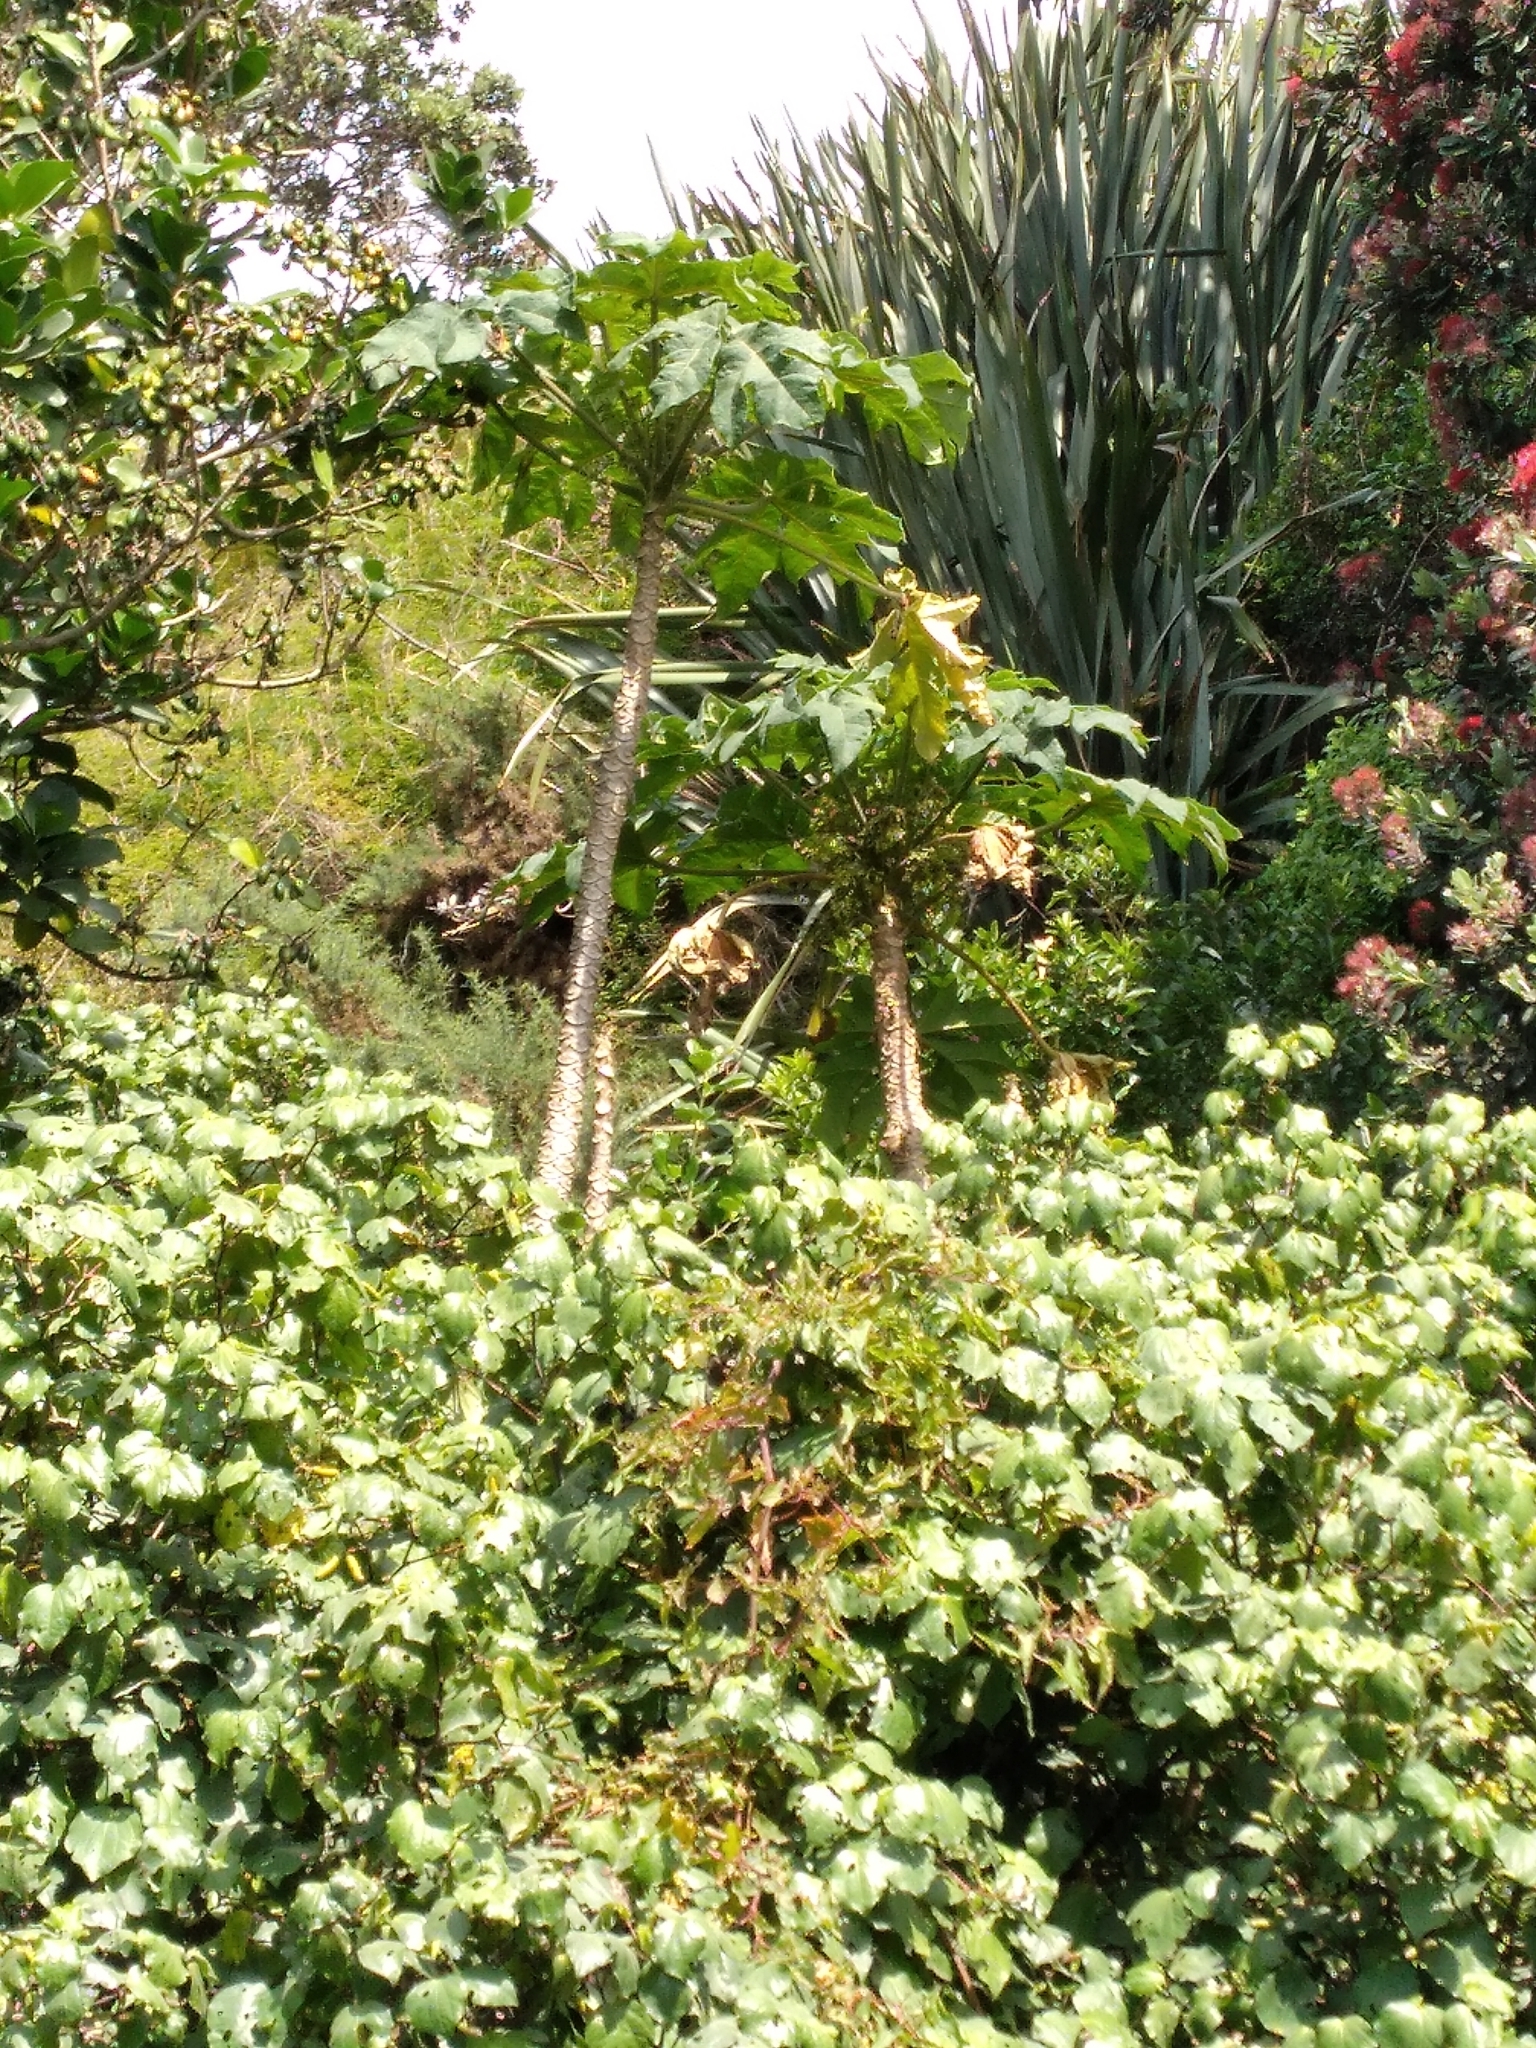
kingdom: Plantae
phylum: Tracheophyta
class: Magnoliopsida
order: Brassicales
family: Caricaceae
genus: Vasconcellea
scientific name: Vasconcellea pubescens
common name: Mountain papaya
